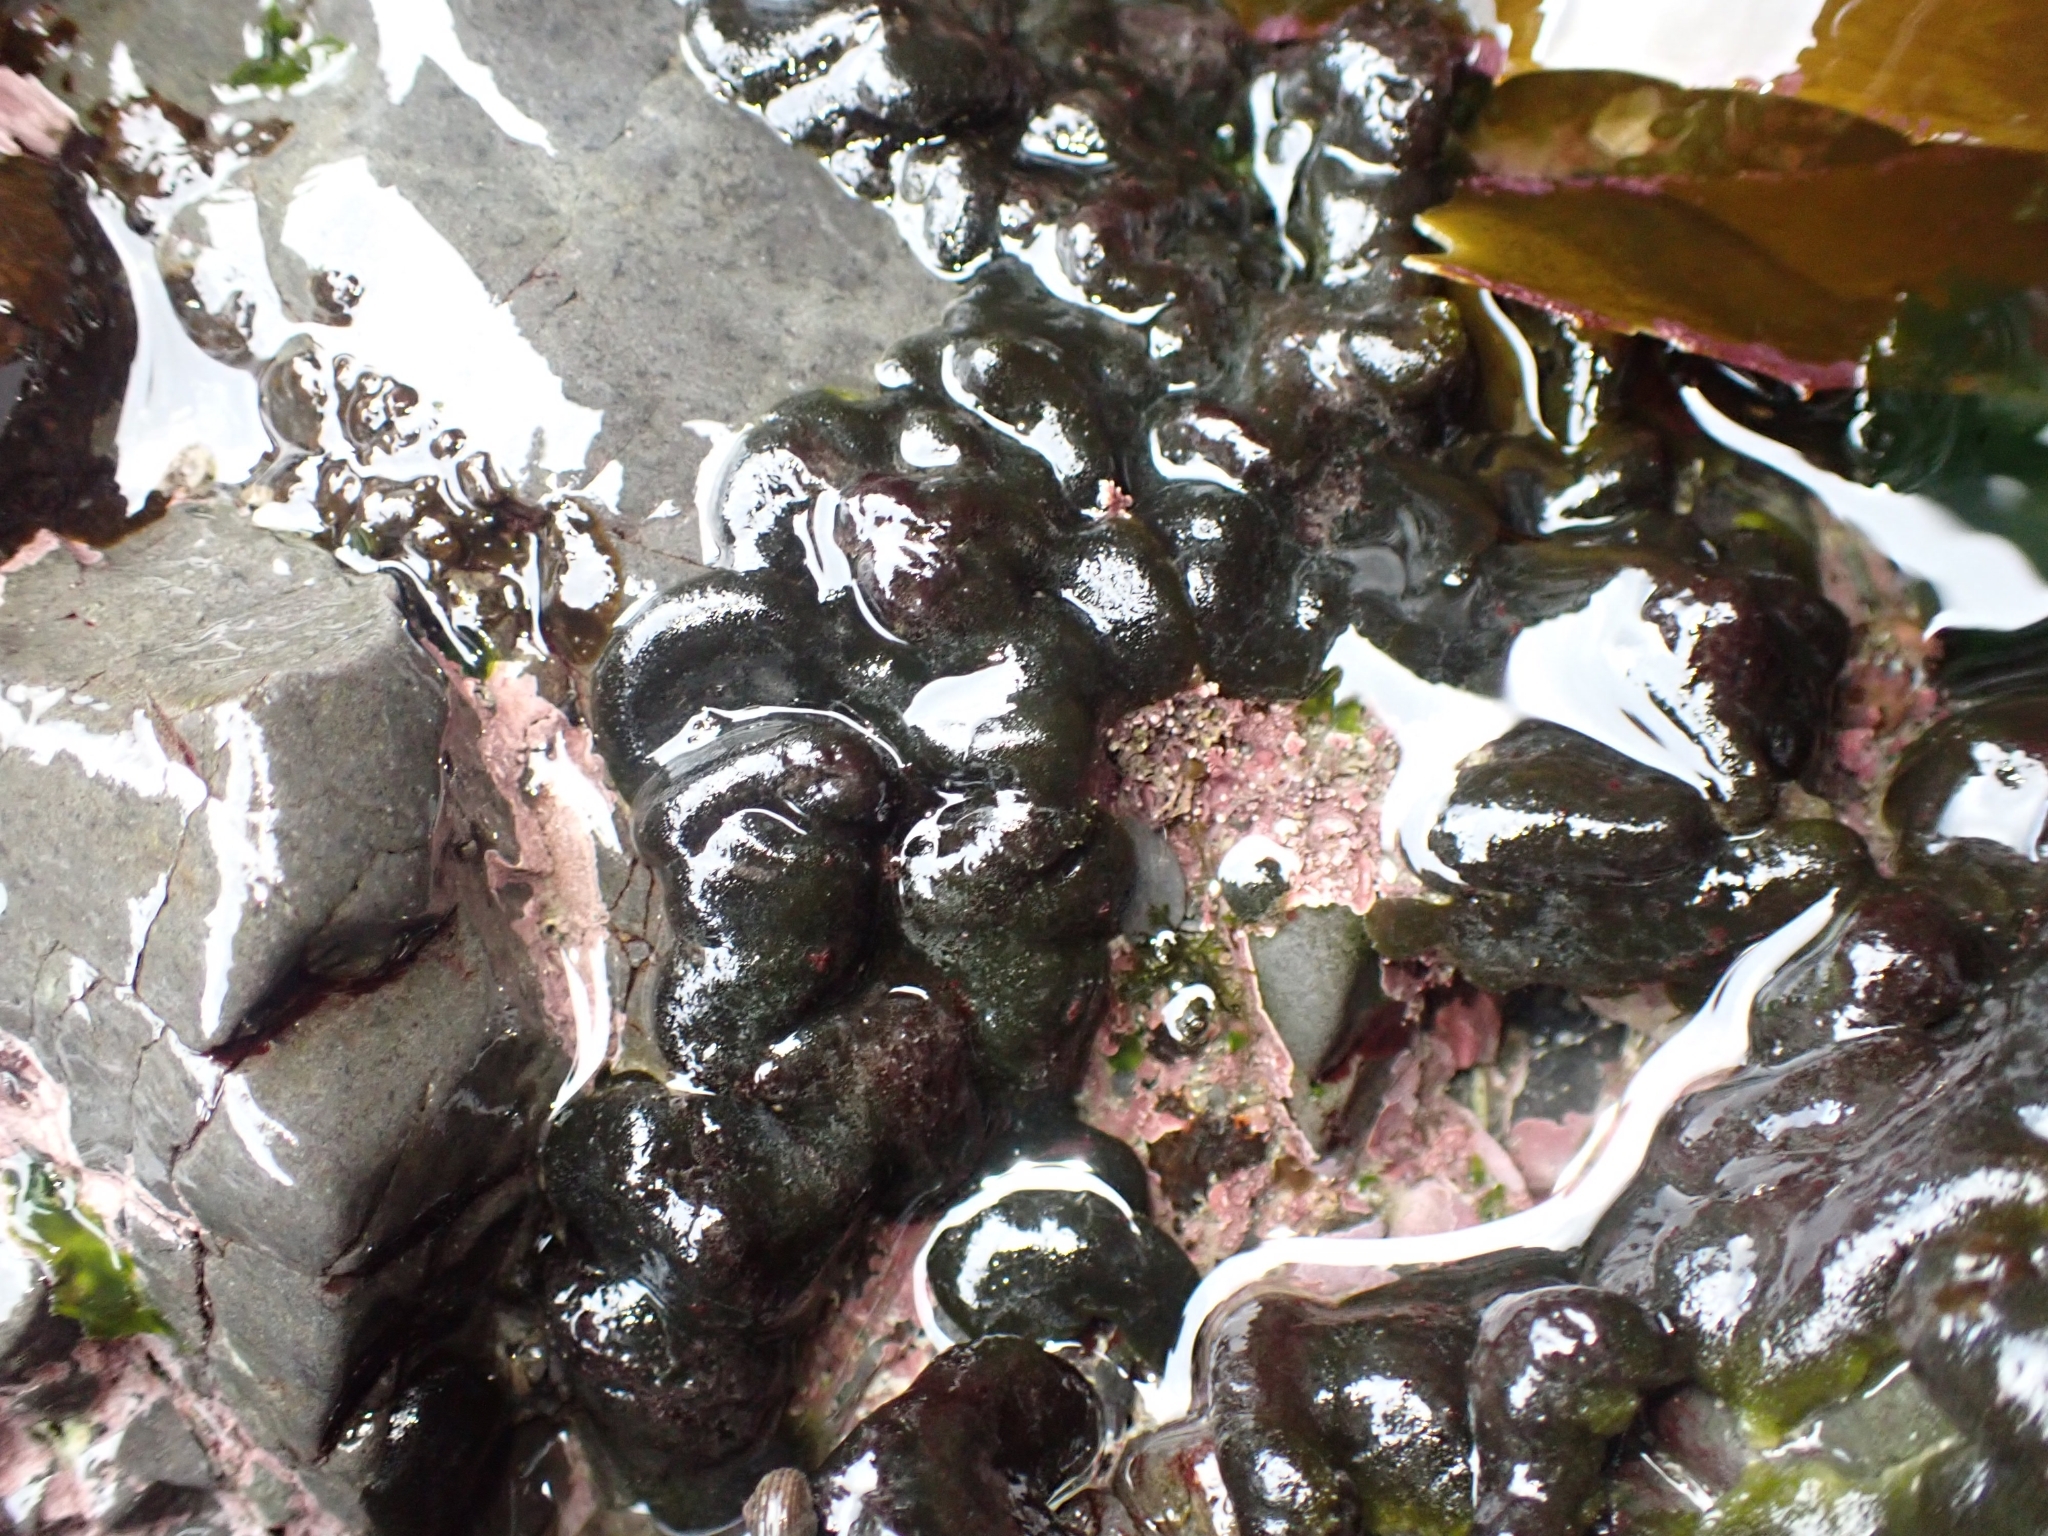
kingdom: Plantae
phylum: Chlorophyta
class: Ulvophyceae
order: Bryopsidales
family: Codiaceae
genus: Codium
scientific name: Codium convolutum
